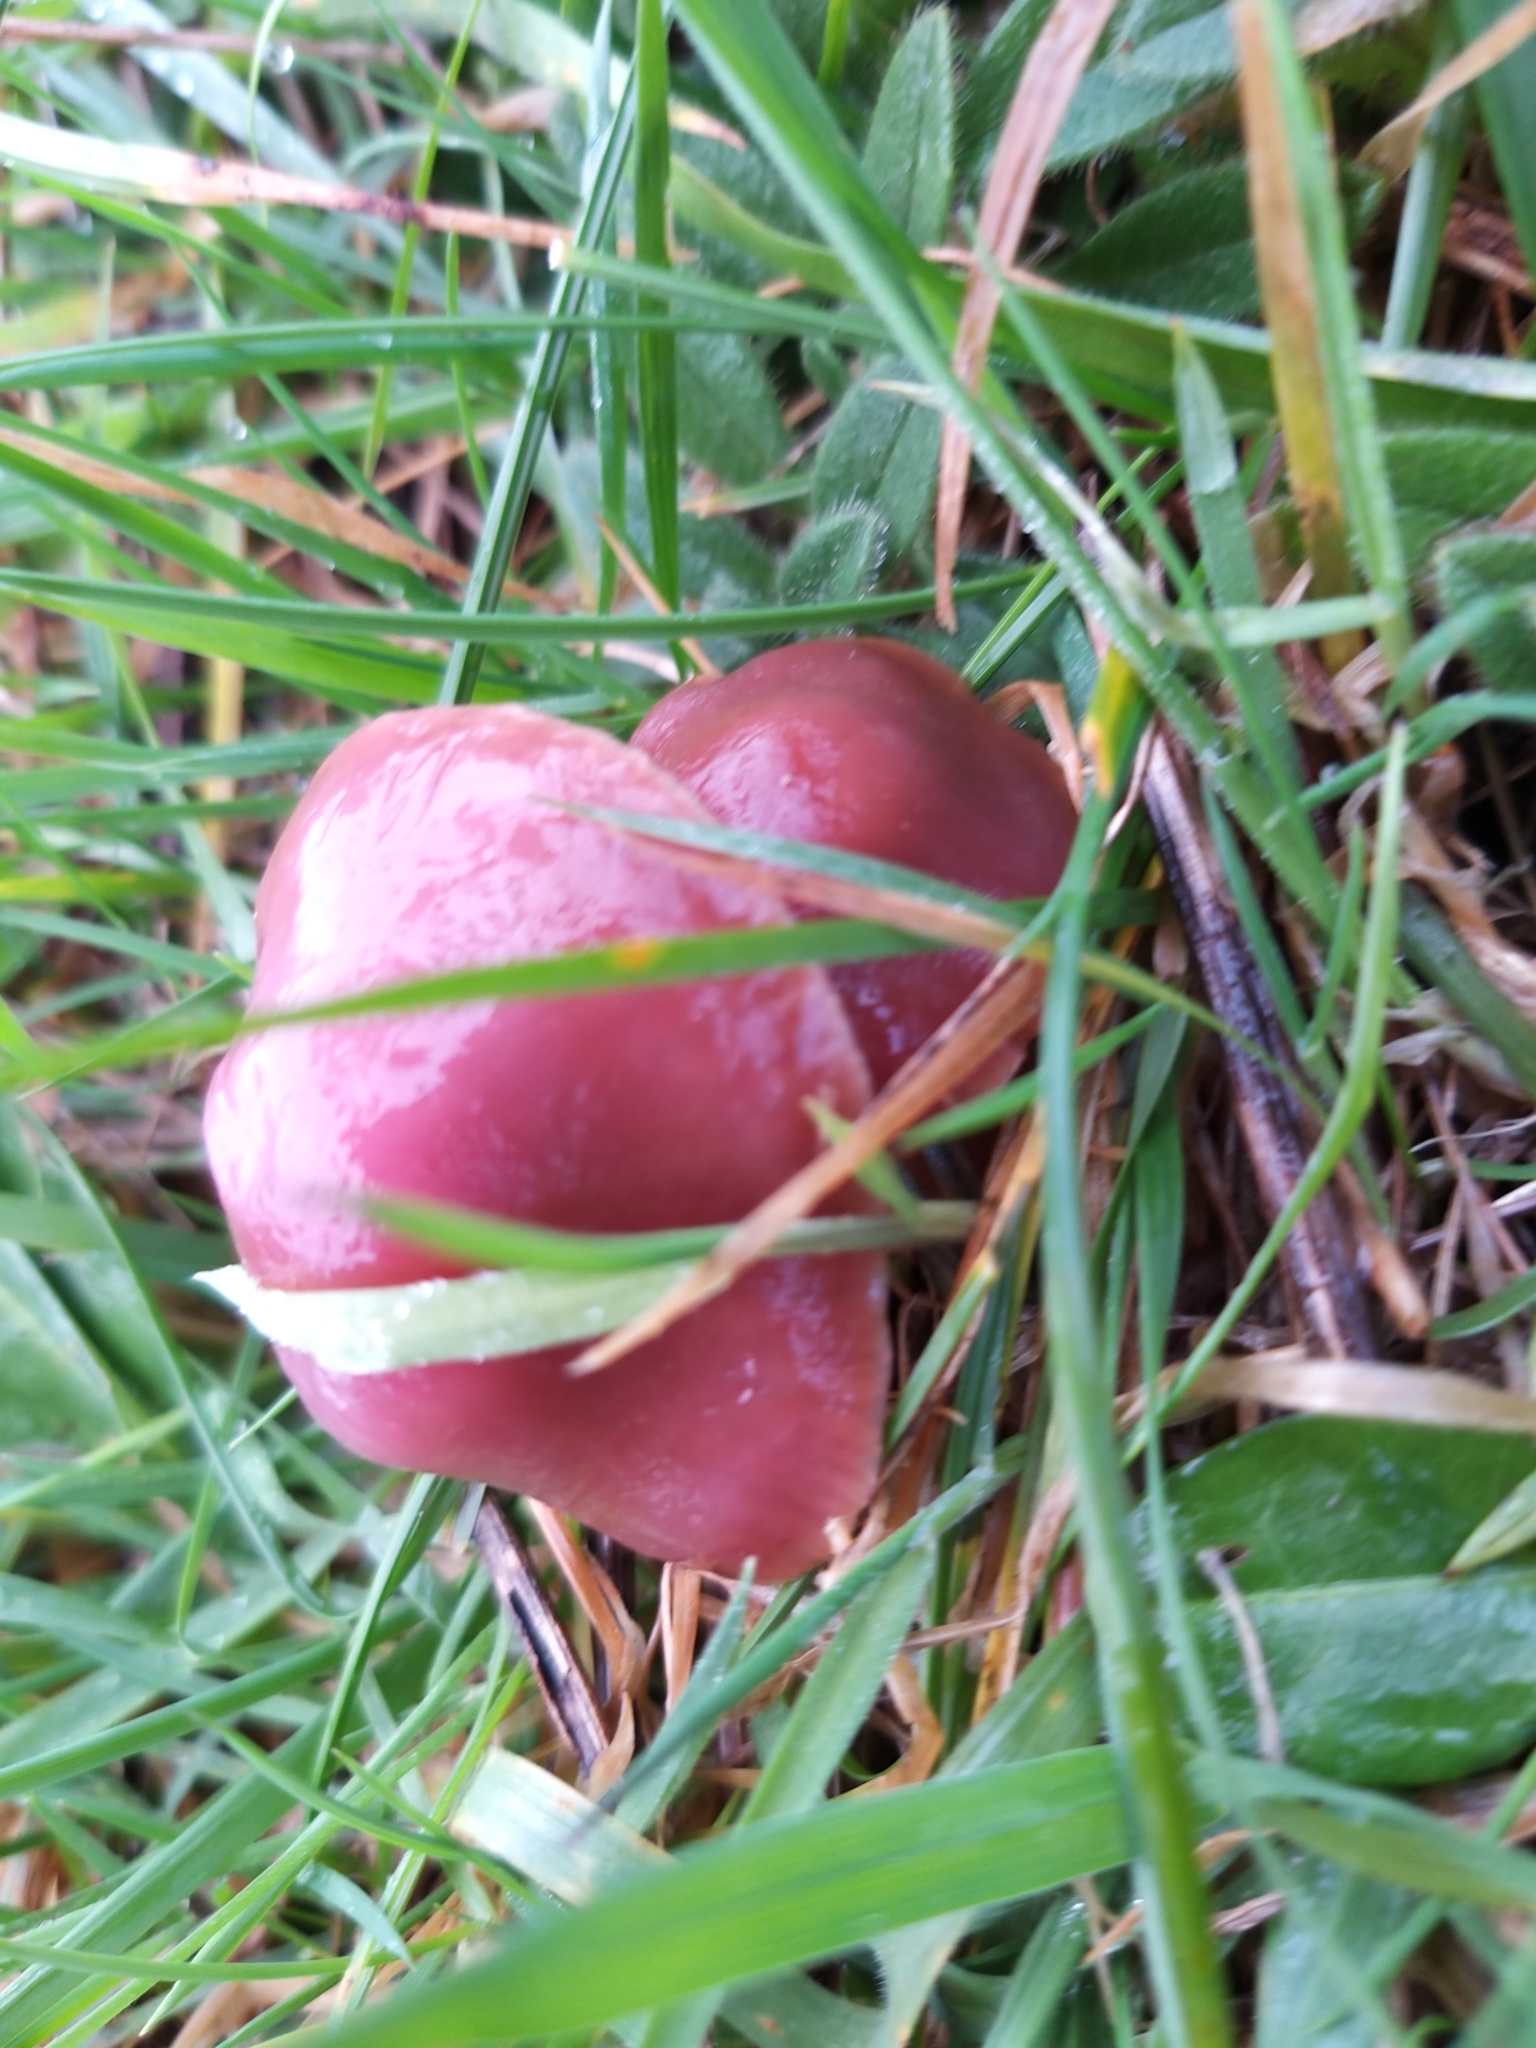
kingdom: Fungi
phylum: Basidiomycota
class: Agaricomycetes
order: Agaricales
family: Hygrophoraceae
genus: Gliophorus
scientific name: Gliophorus reginae
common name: Jubilee waxcap
